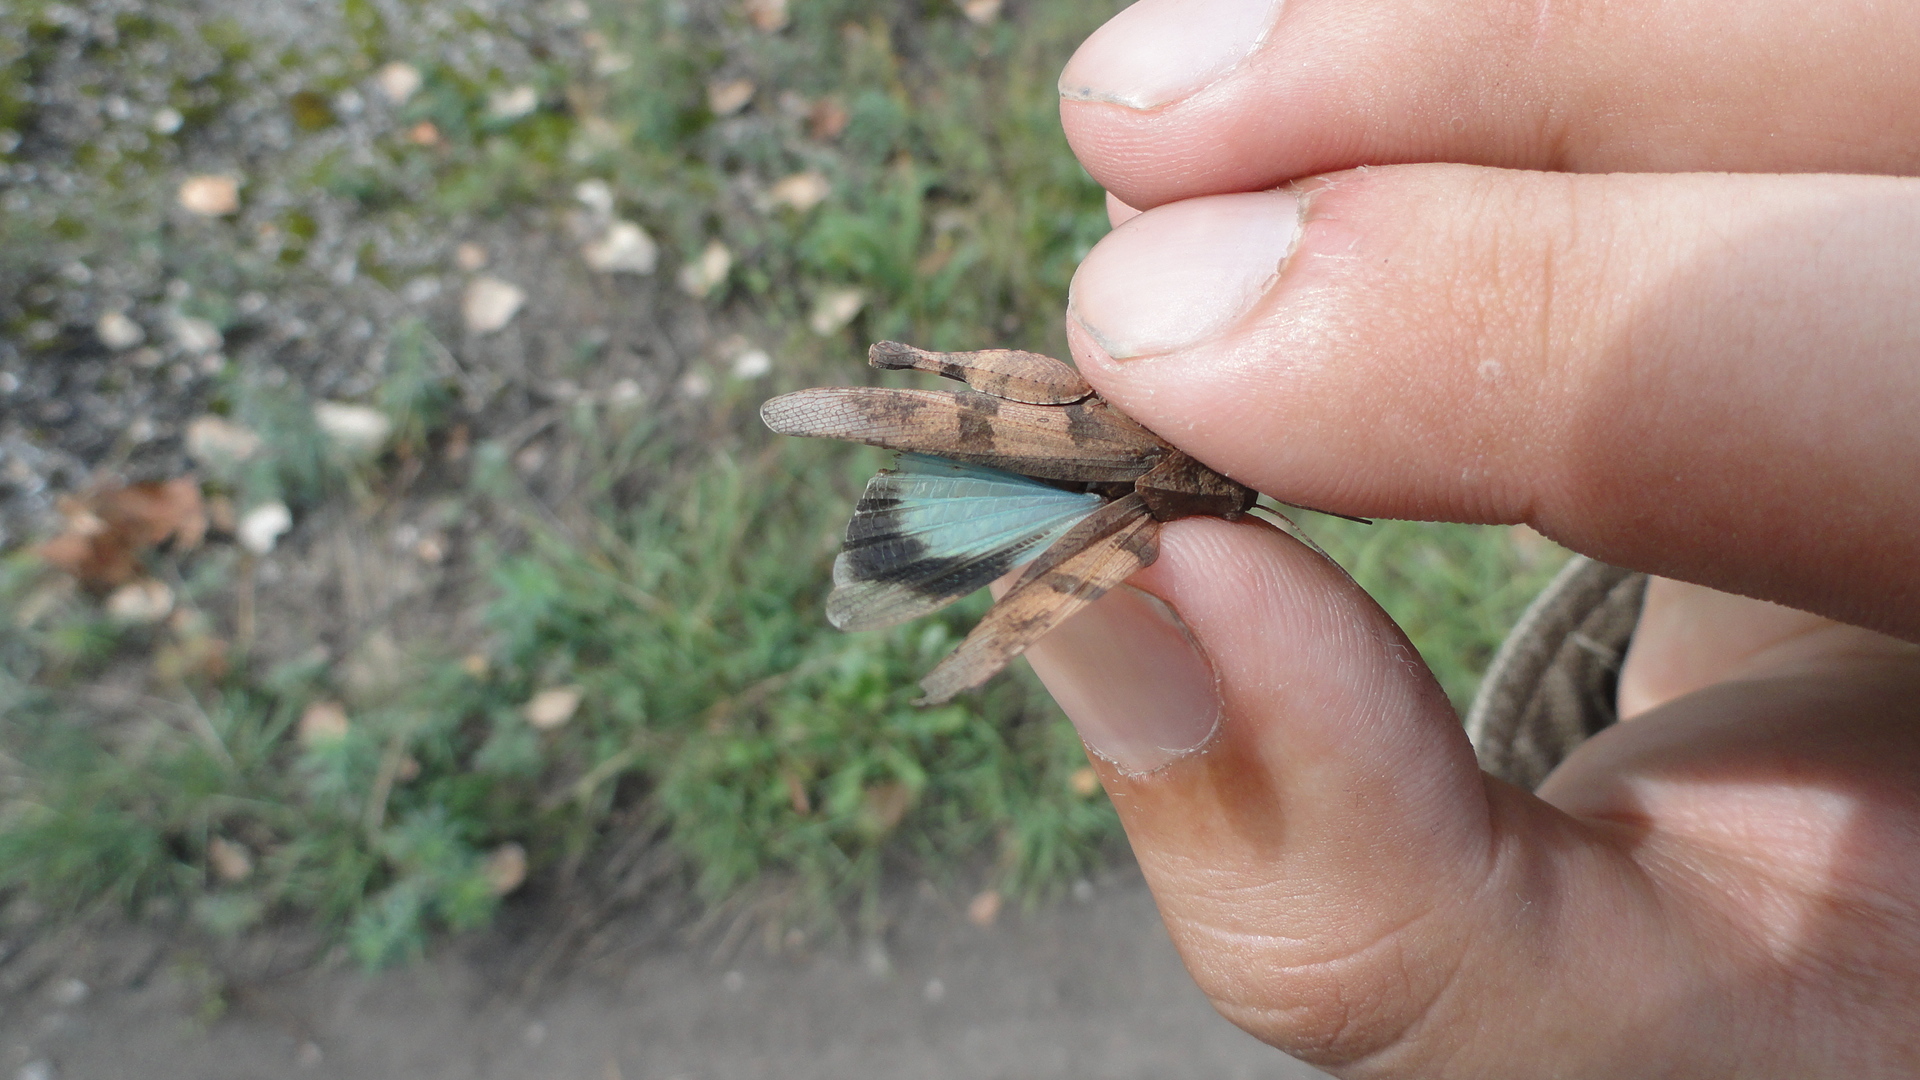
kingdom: Animalia
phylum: Arthropoda
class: Insecta
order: Orthoptera
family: Acrididae
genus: Oedipoda
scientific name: Oedipoda caerulescens
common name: Blue-winged grasshopper
